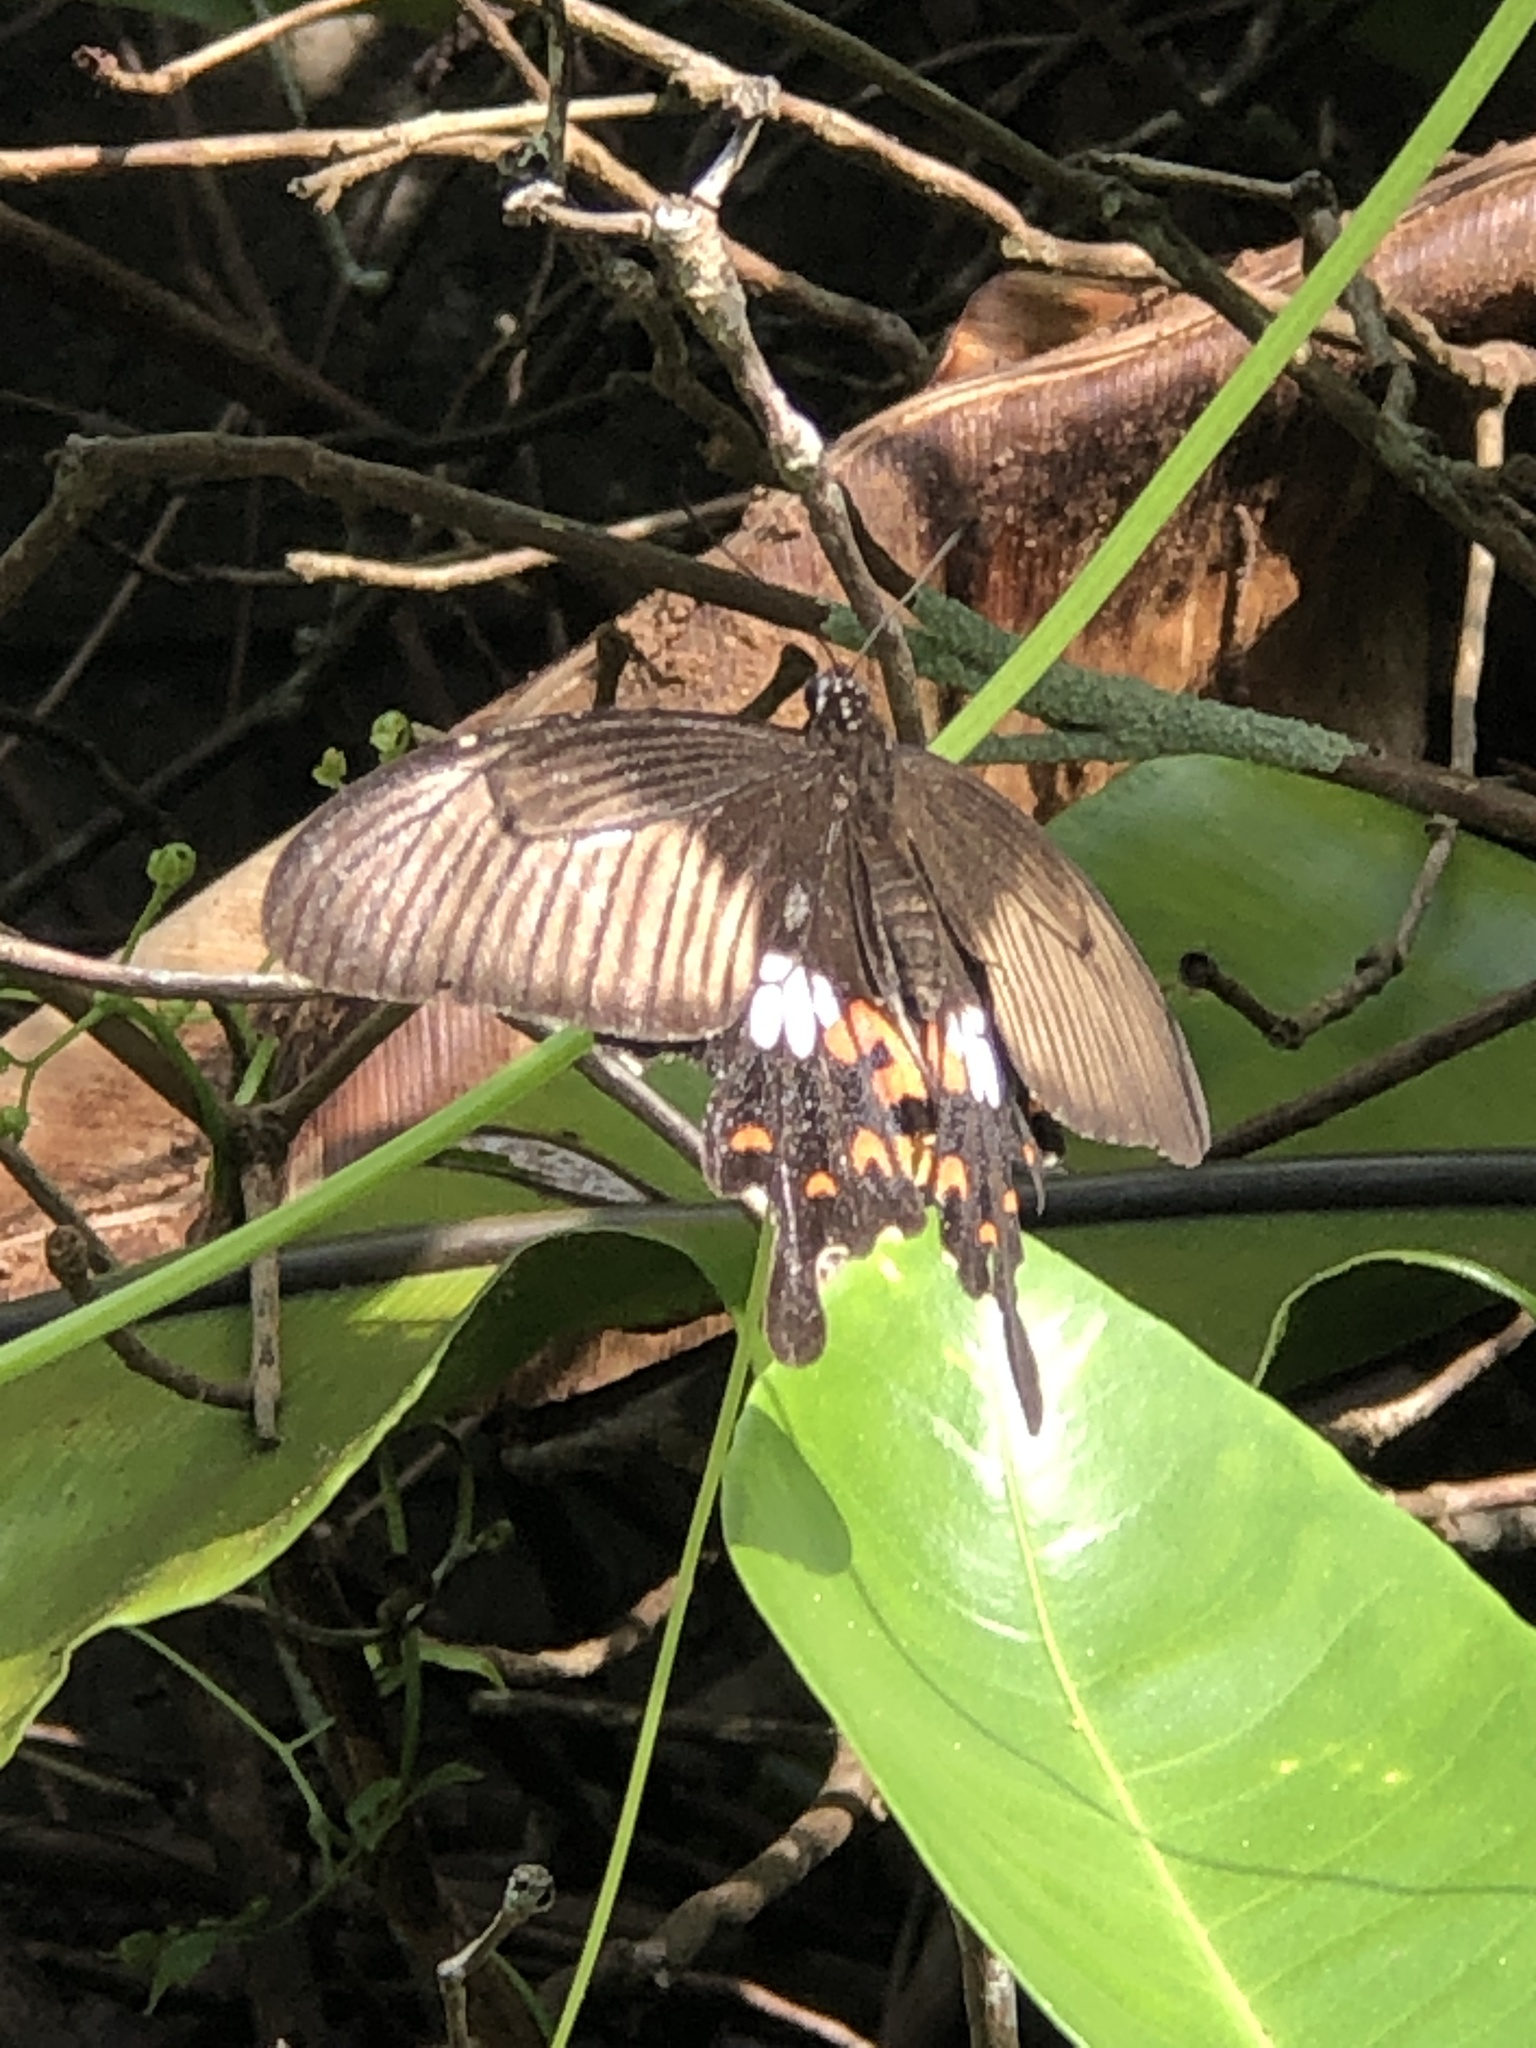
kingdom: Animalia
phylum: Arthropoda
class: Insecta
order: Lepidoptera
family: Papilionidae
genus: Papilio
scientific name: Papilio polytes
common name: Common mormon
